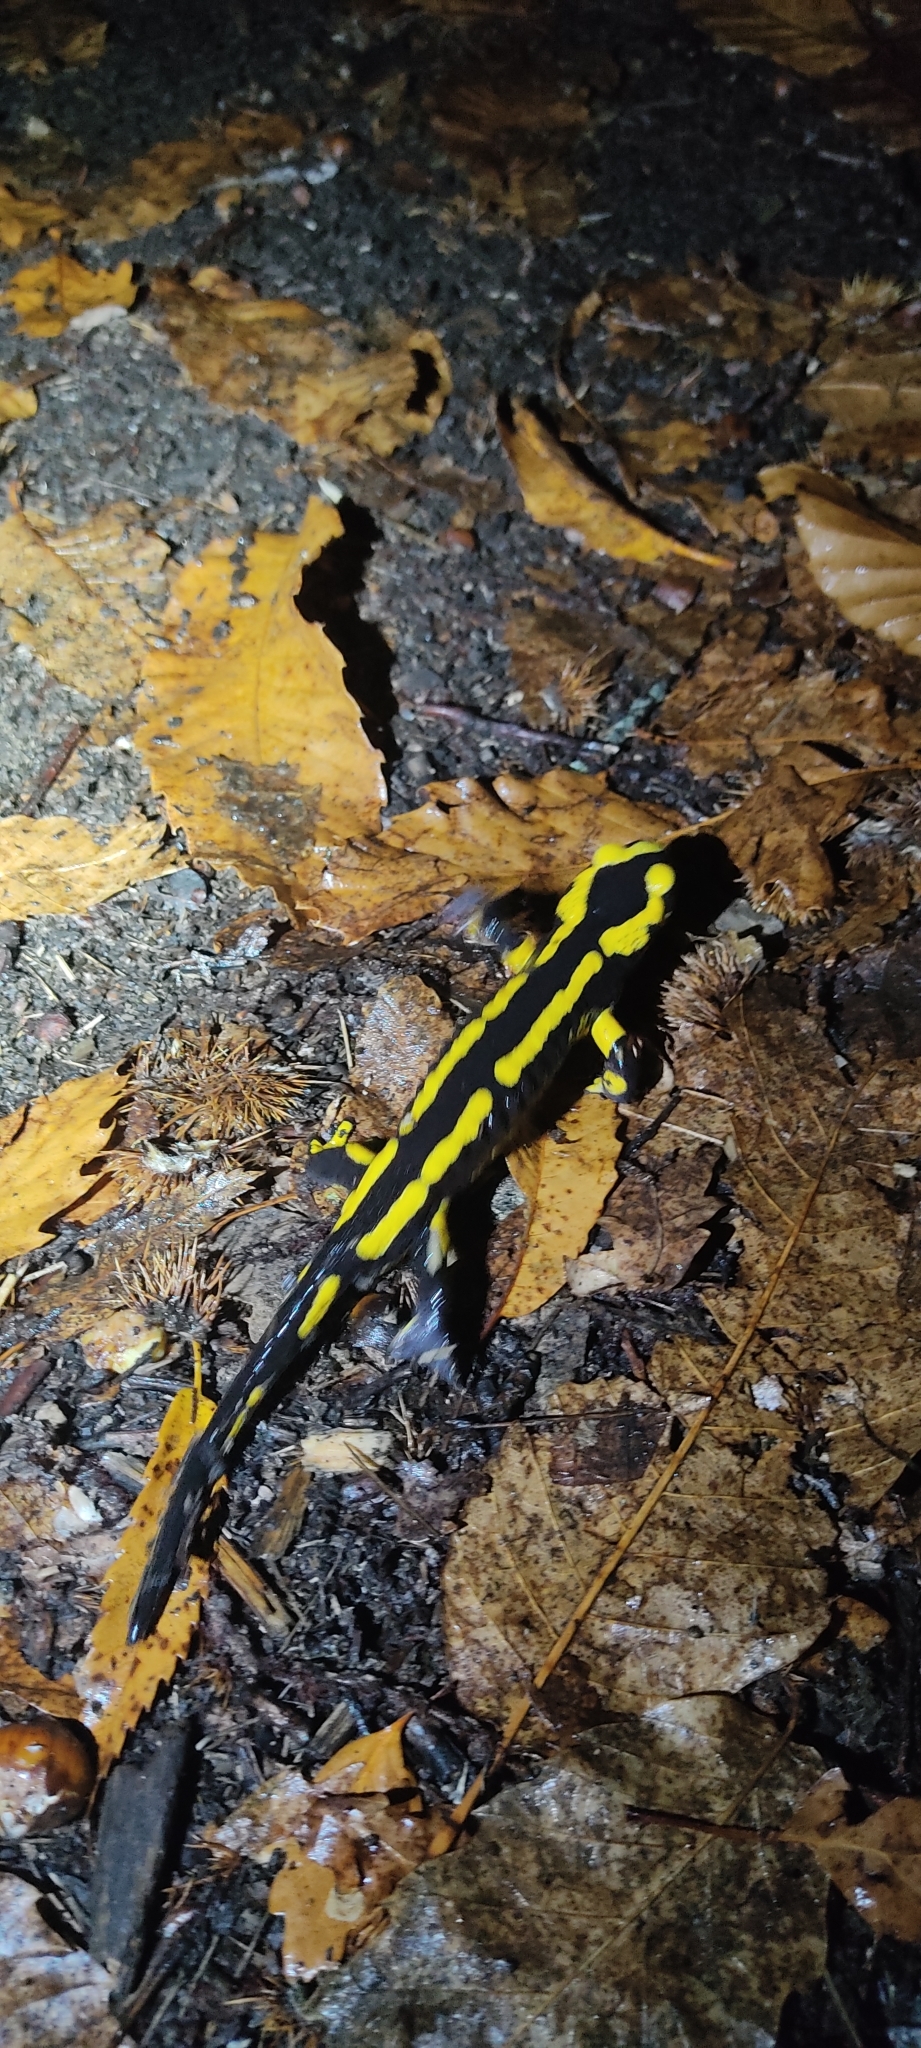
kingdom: Animalia
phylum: Chordata
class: Amphibia
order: Caudata
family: Salamandridae
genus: Salamandra
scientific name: Salamandra salamandra
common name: Fire salamander
